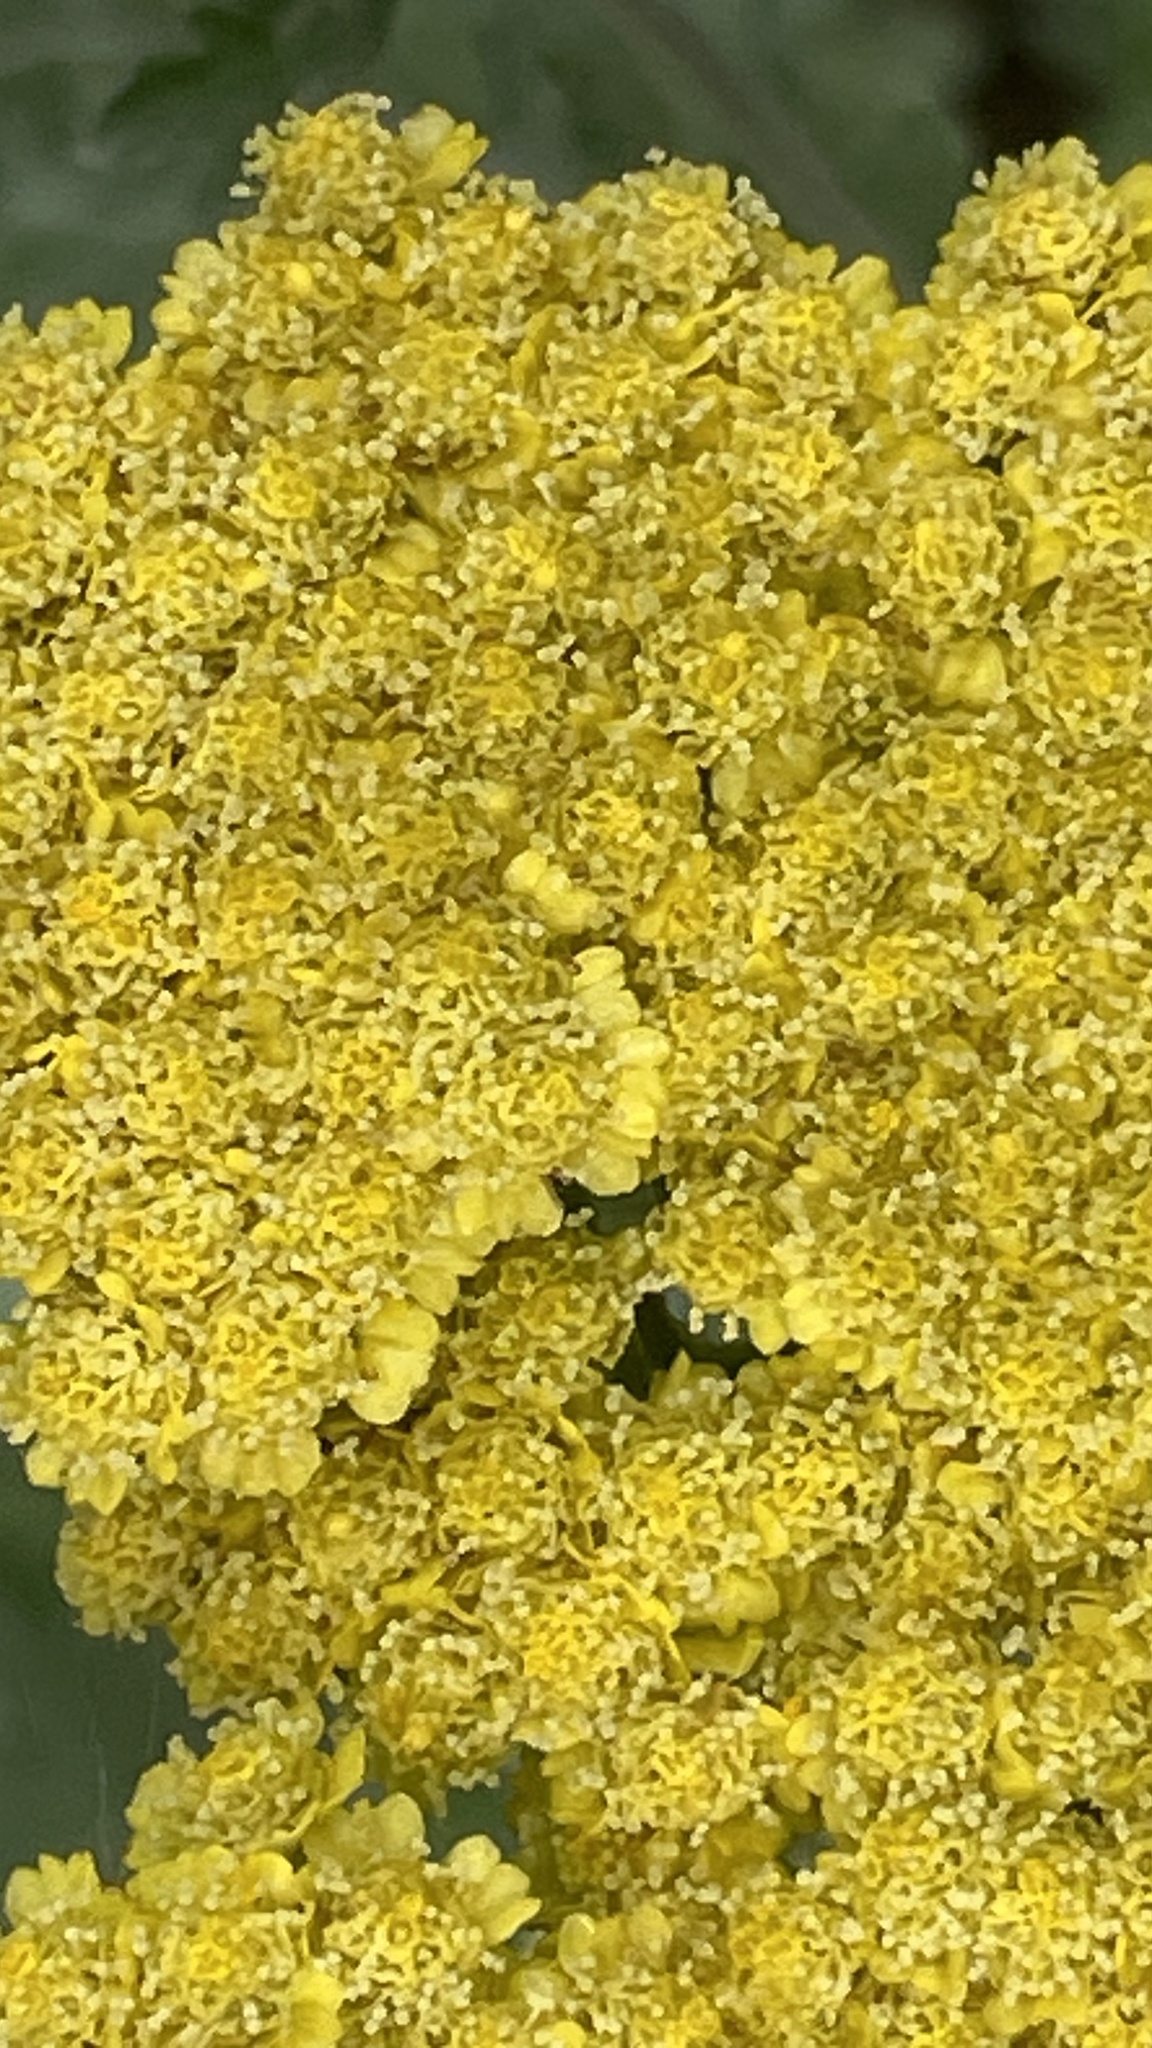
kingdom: Plantae
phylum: Tracheophyta
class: Magnoliopsida
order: Asterales
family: Asteraceae
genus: Achillea
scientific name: Achillea filipendulina
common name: Fernleaf yarrow
